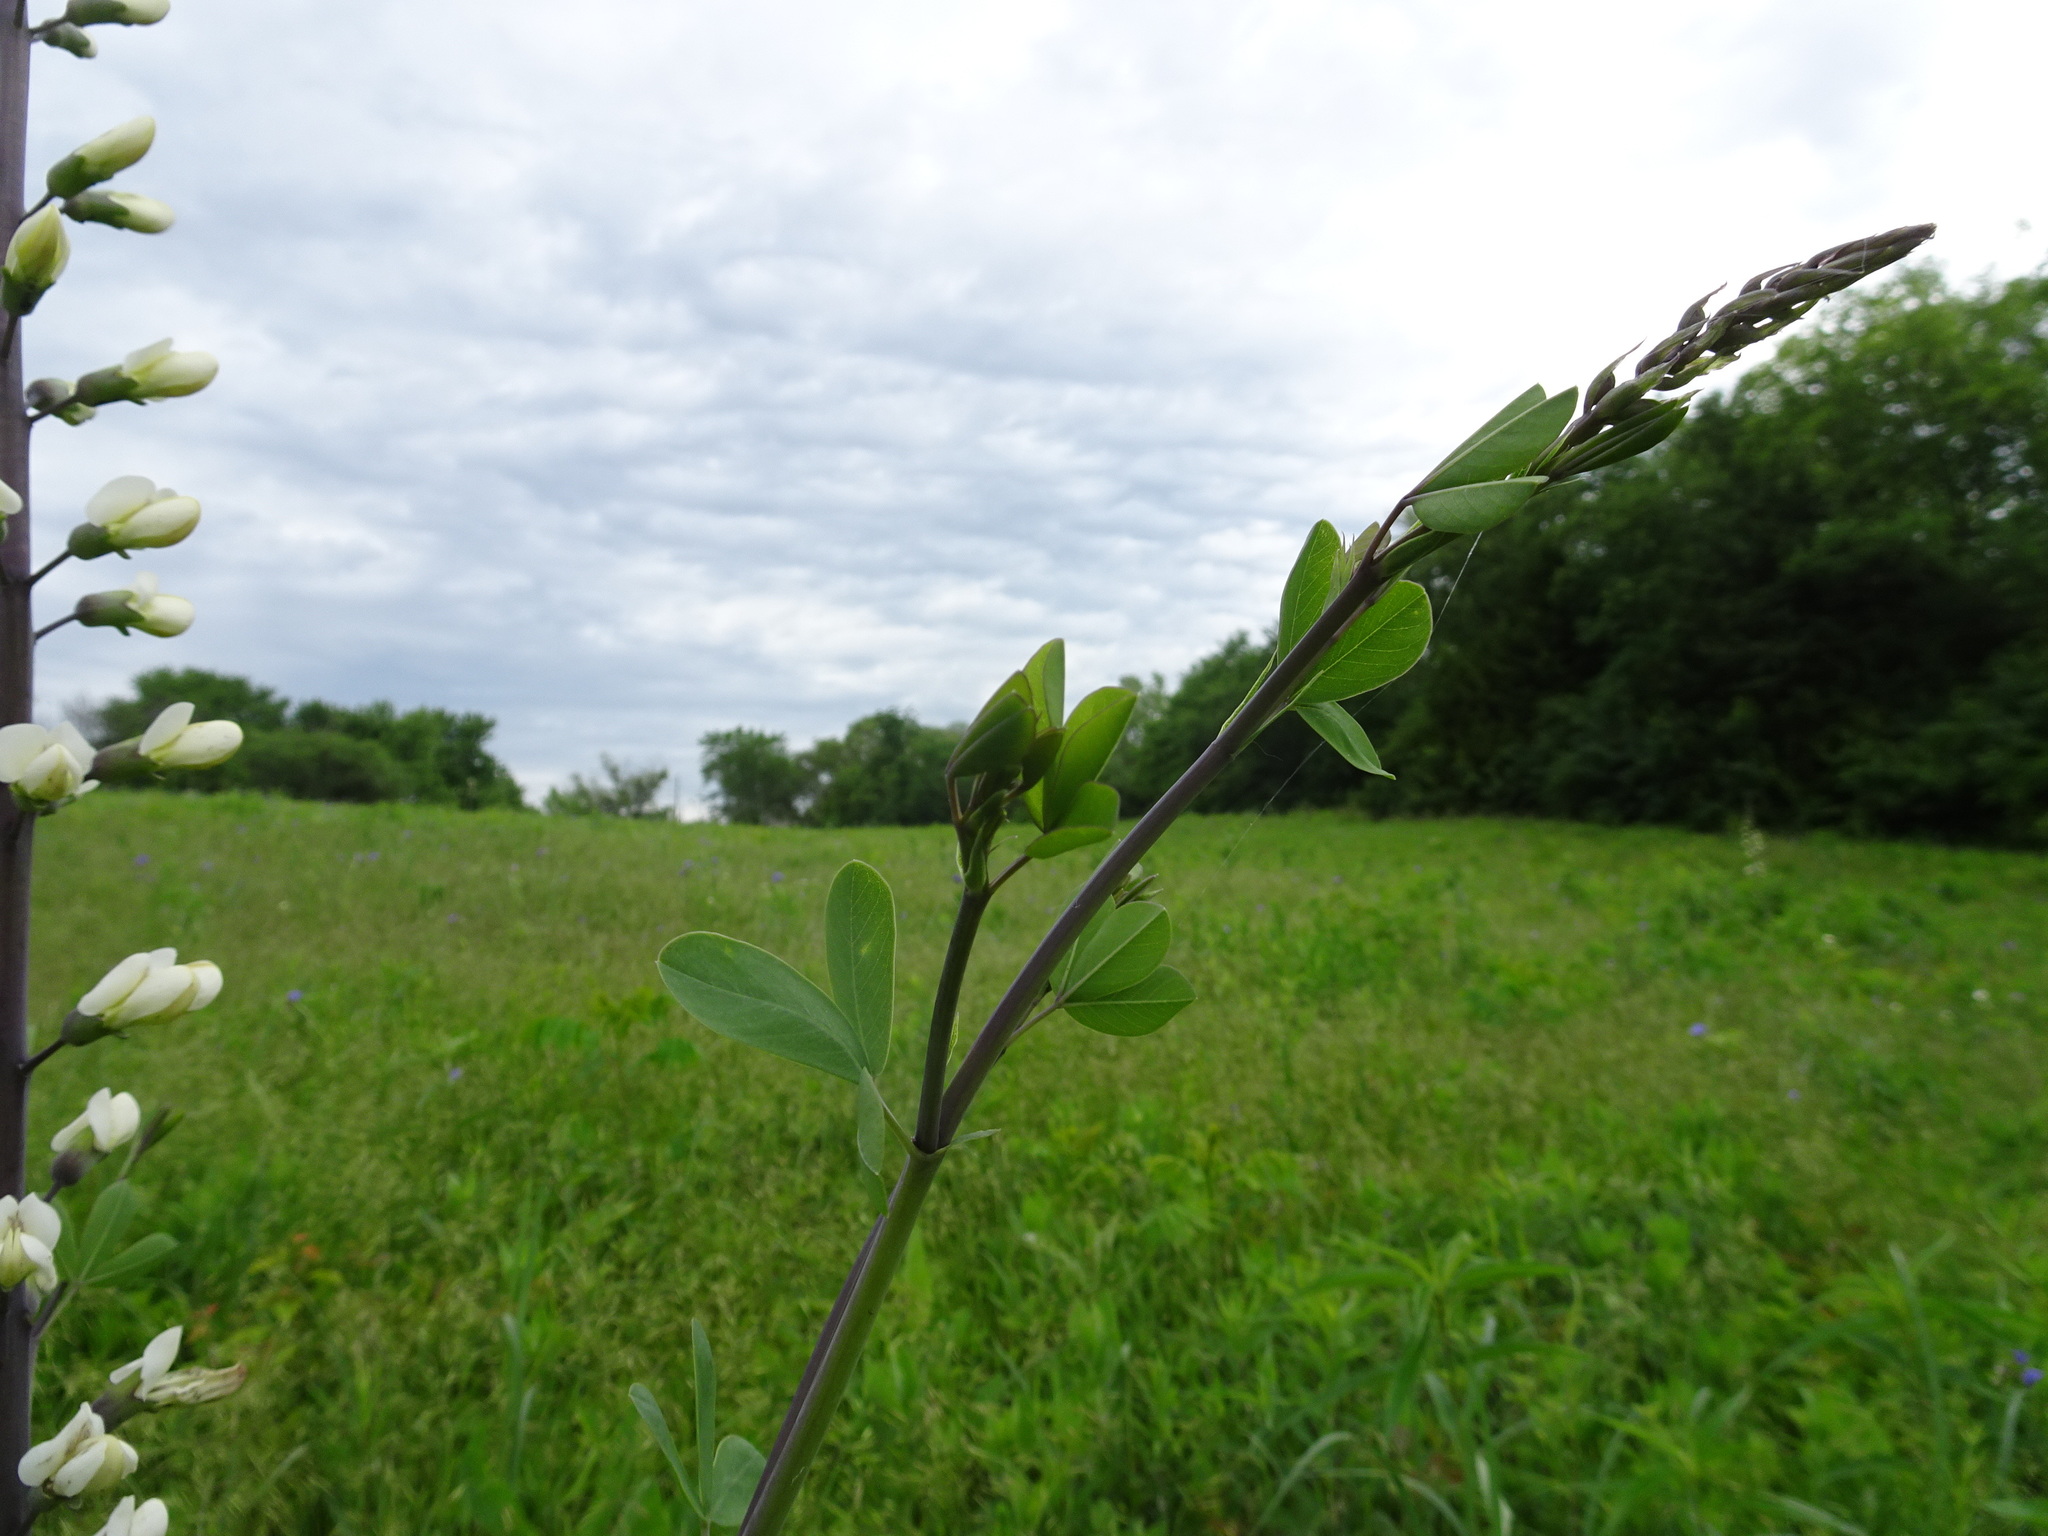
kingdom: Plantae
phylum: Tracheophyta
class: Magnoliopsida
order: Fabales
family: Fabaceae
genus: Baptisia
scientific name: Baptisia alba
